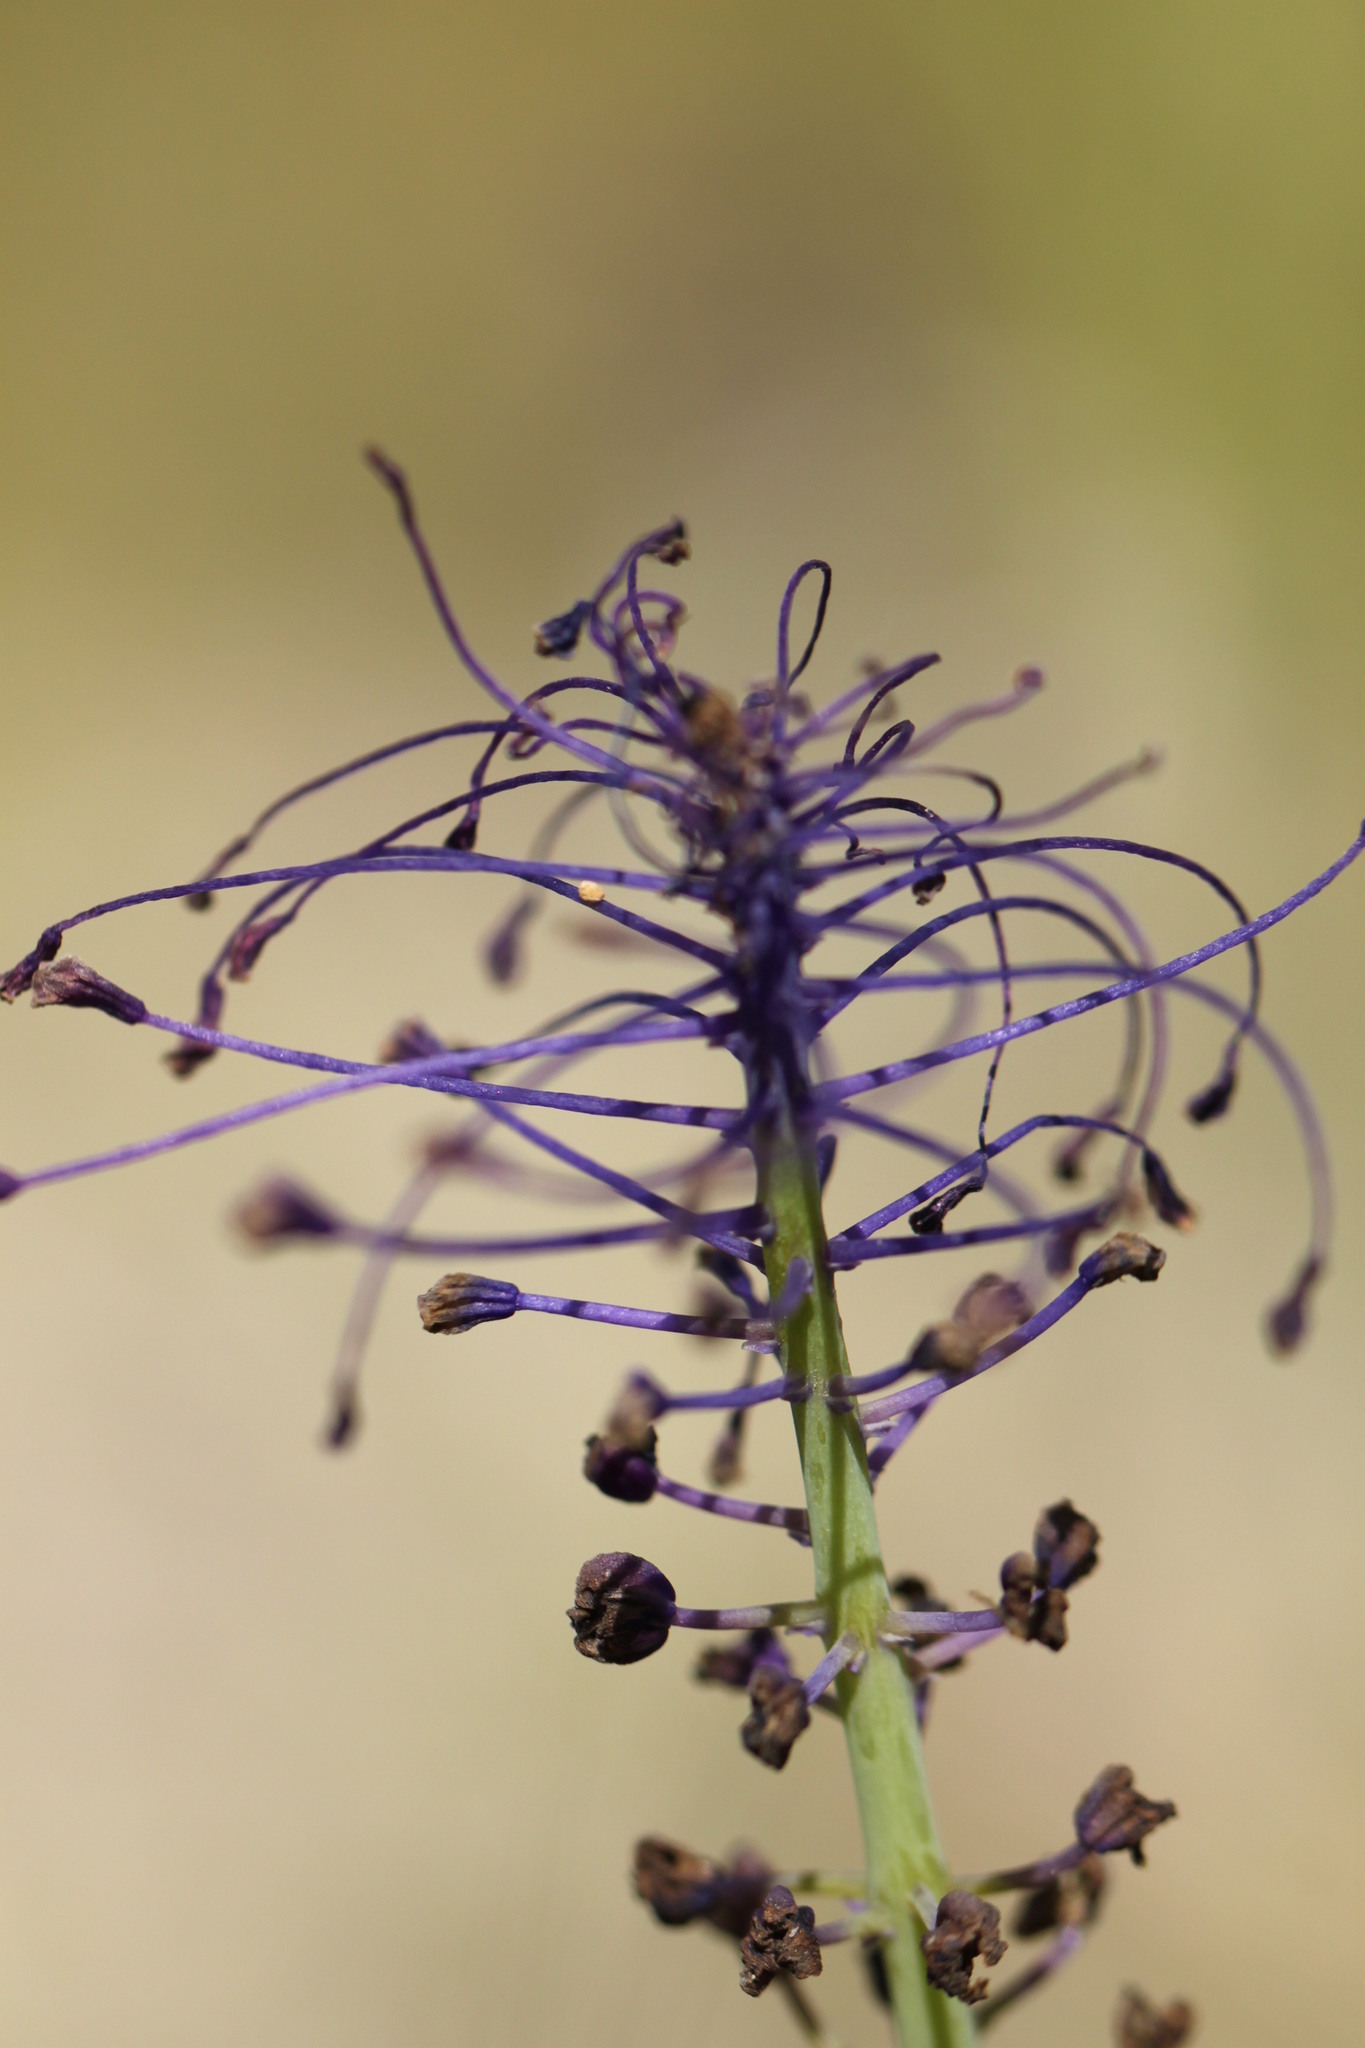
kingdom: Plantae
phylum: Tracheophyta
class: Liliopsida
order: Asparagales
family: Asparagaceae
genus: Muscari
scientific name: Muscari comosum
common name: Tassel hyacinth
